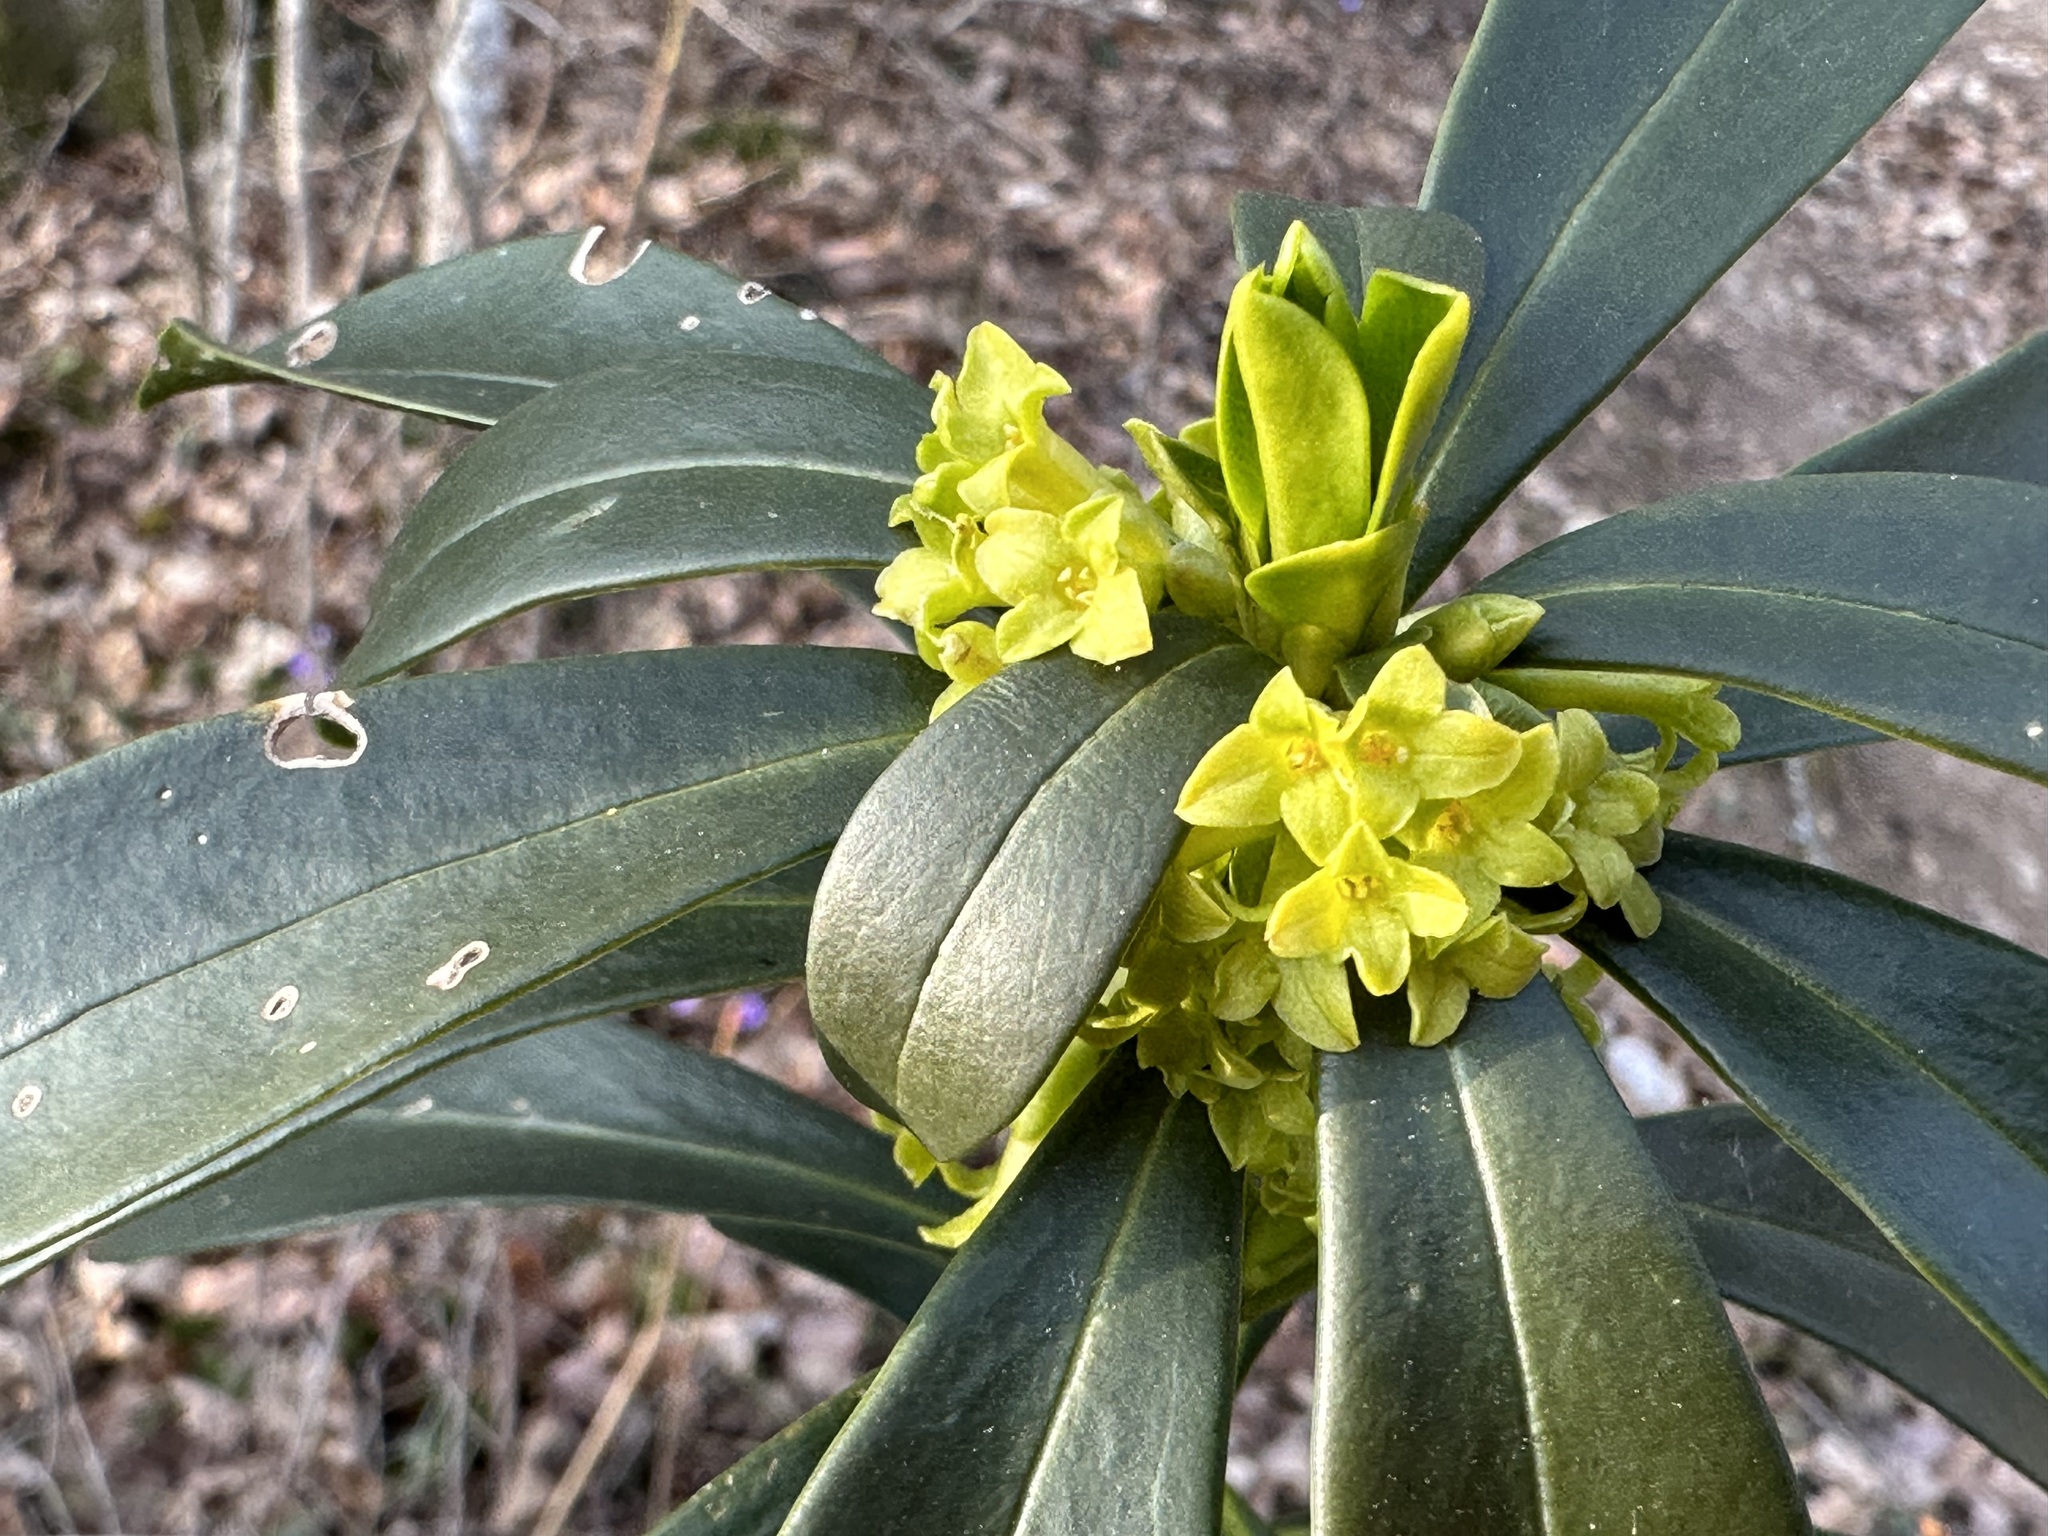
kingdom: Plantae
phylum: Tracheophyta
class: Magnoliopsida
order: Malvales
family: Thymelaeaceae
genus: Daphne
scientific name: Daphne laureola
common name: Spurge-laurel
